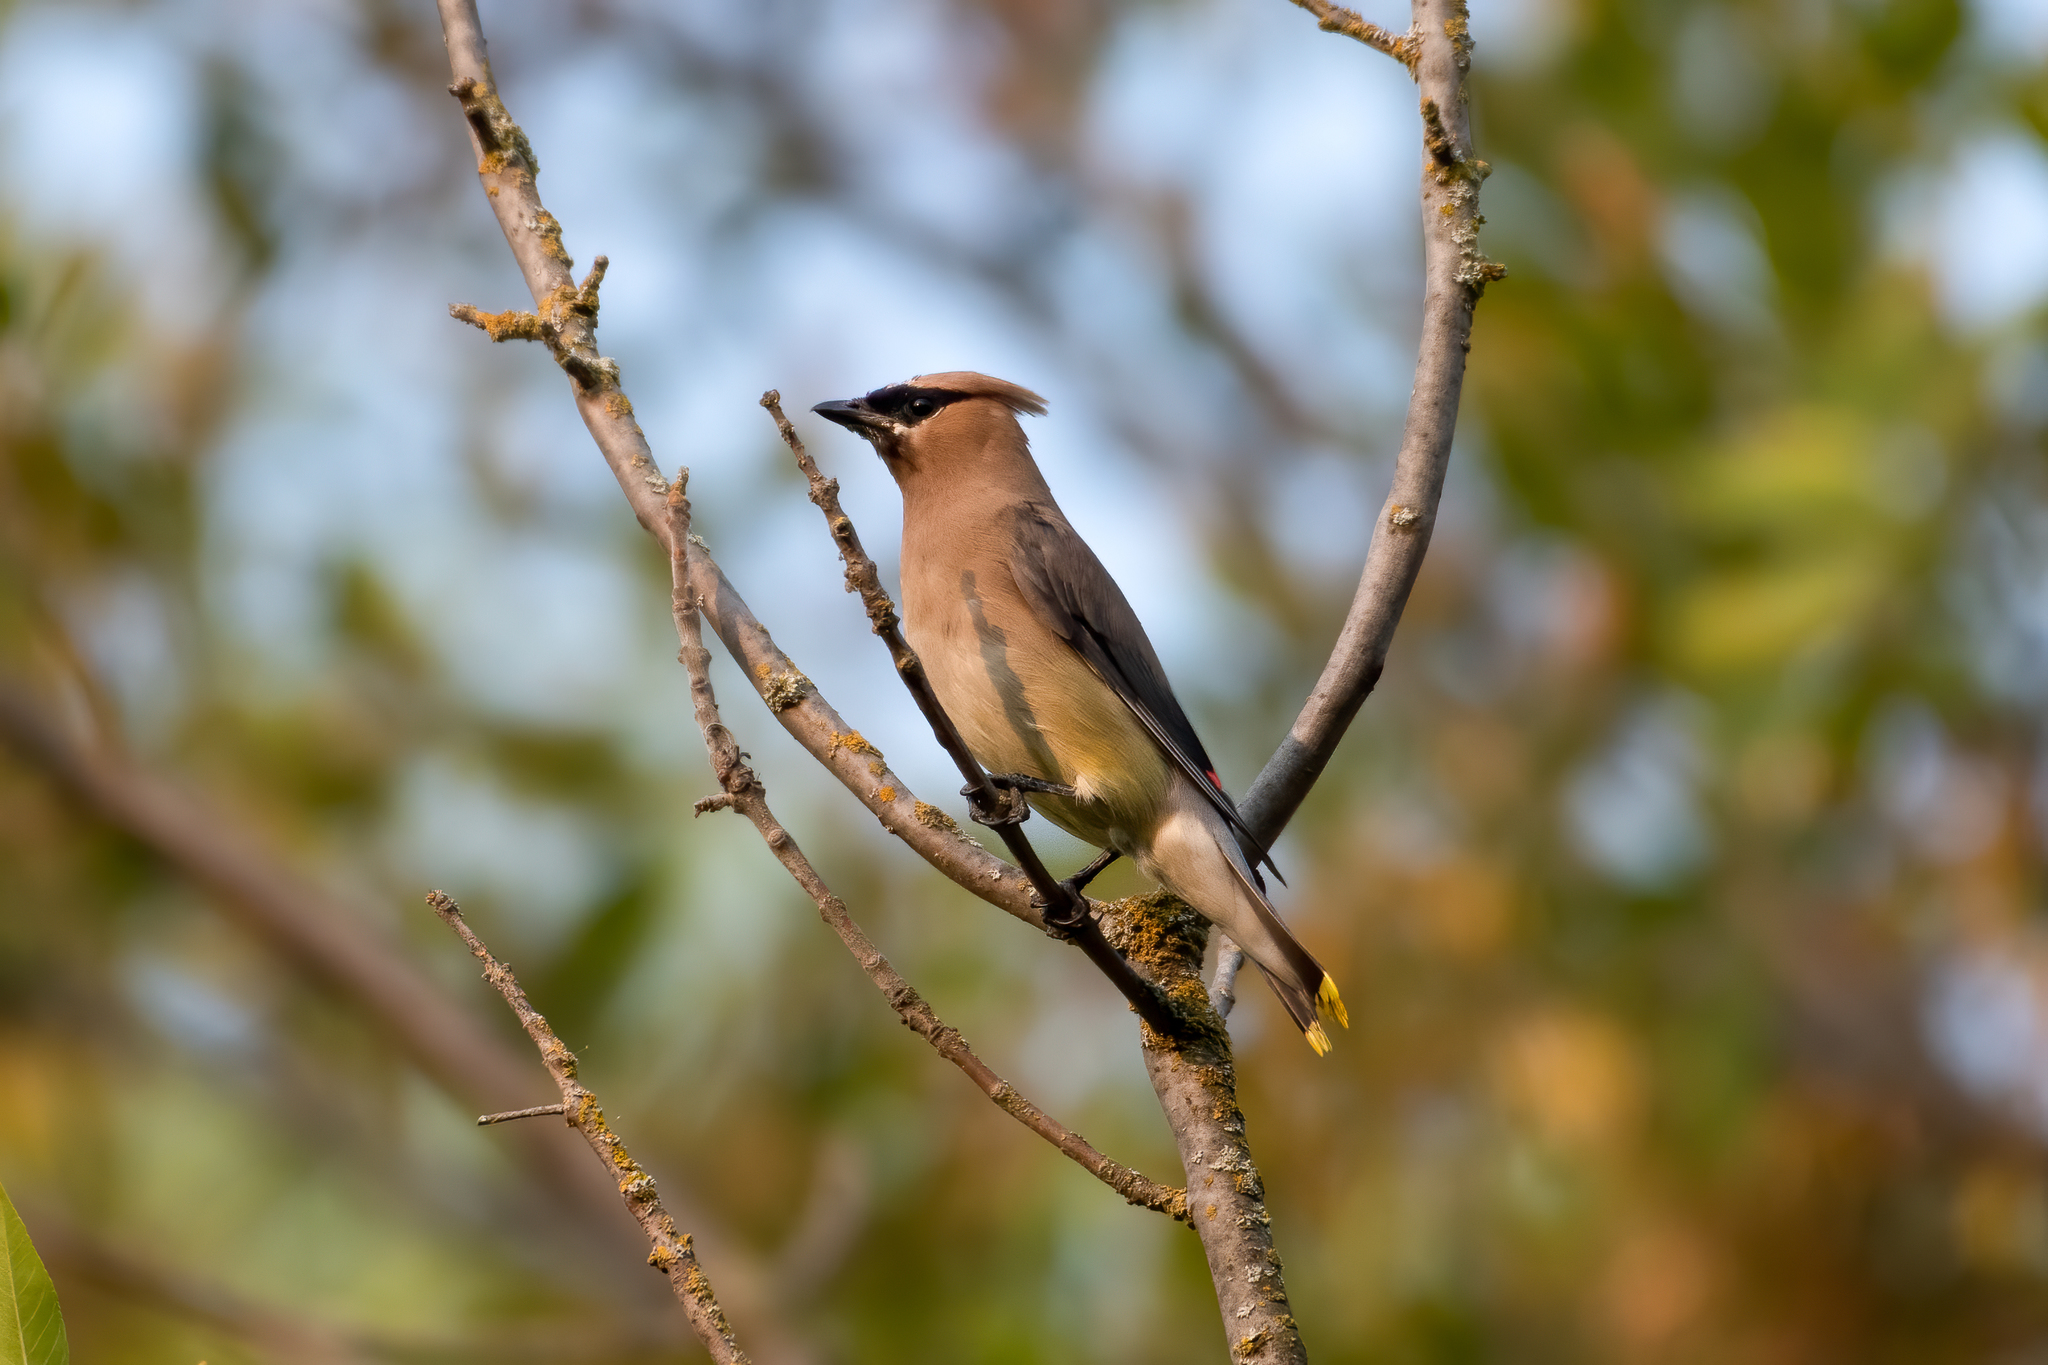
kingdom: Animalia
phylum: Chordata
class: Aves
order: Passeriformes
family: Bombycillidae
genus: Bombycilla
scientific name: Bombycilla cedrorum
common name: Cedar waxwing
